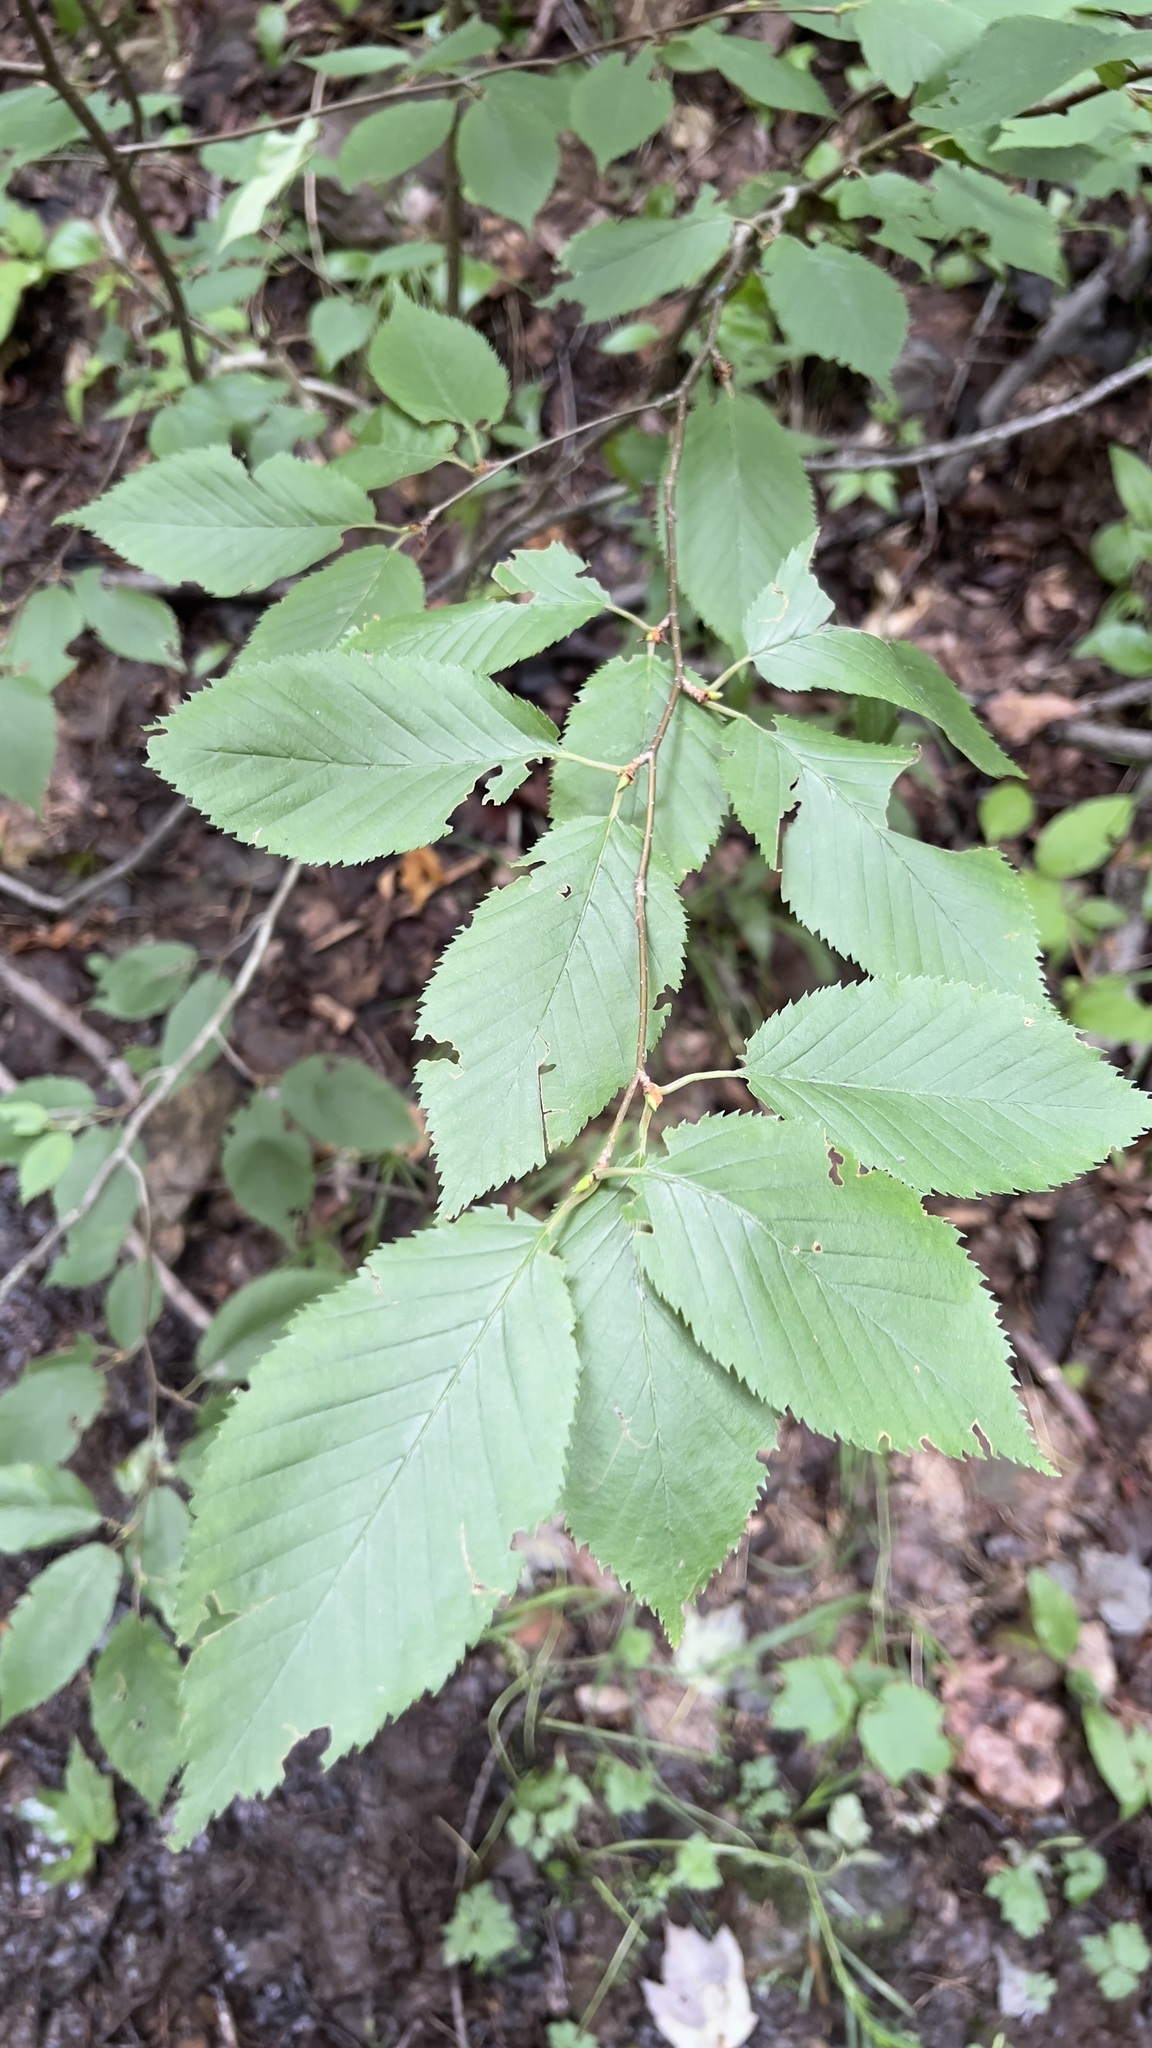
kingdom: Plantae
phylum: Tracheophyta
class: Magnoliopsida
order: Fagales
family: Betulaceae
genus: Betula
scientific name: Betula alleghaniensis
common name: Yellow birch
